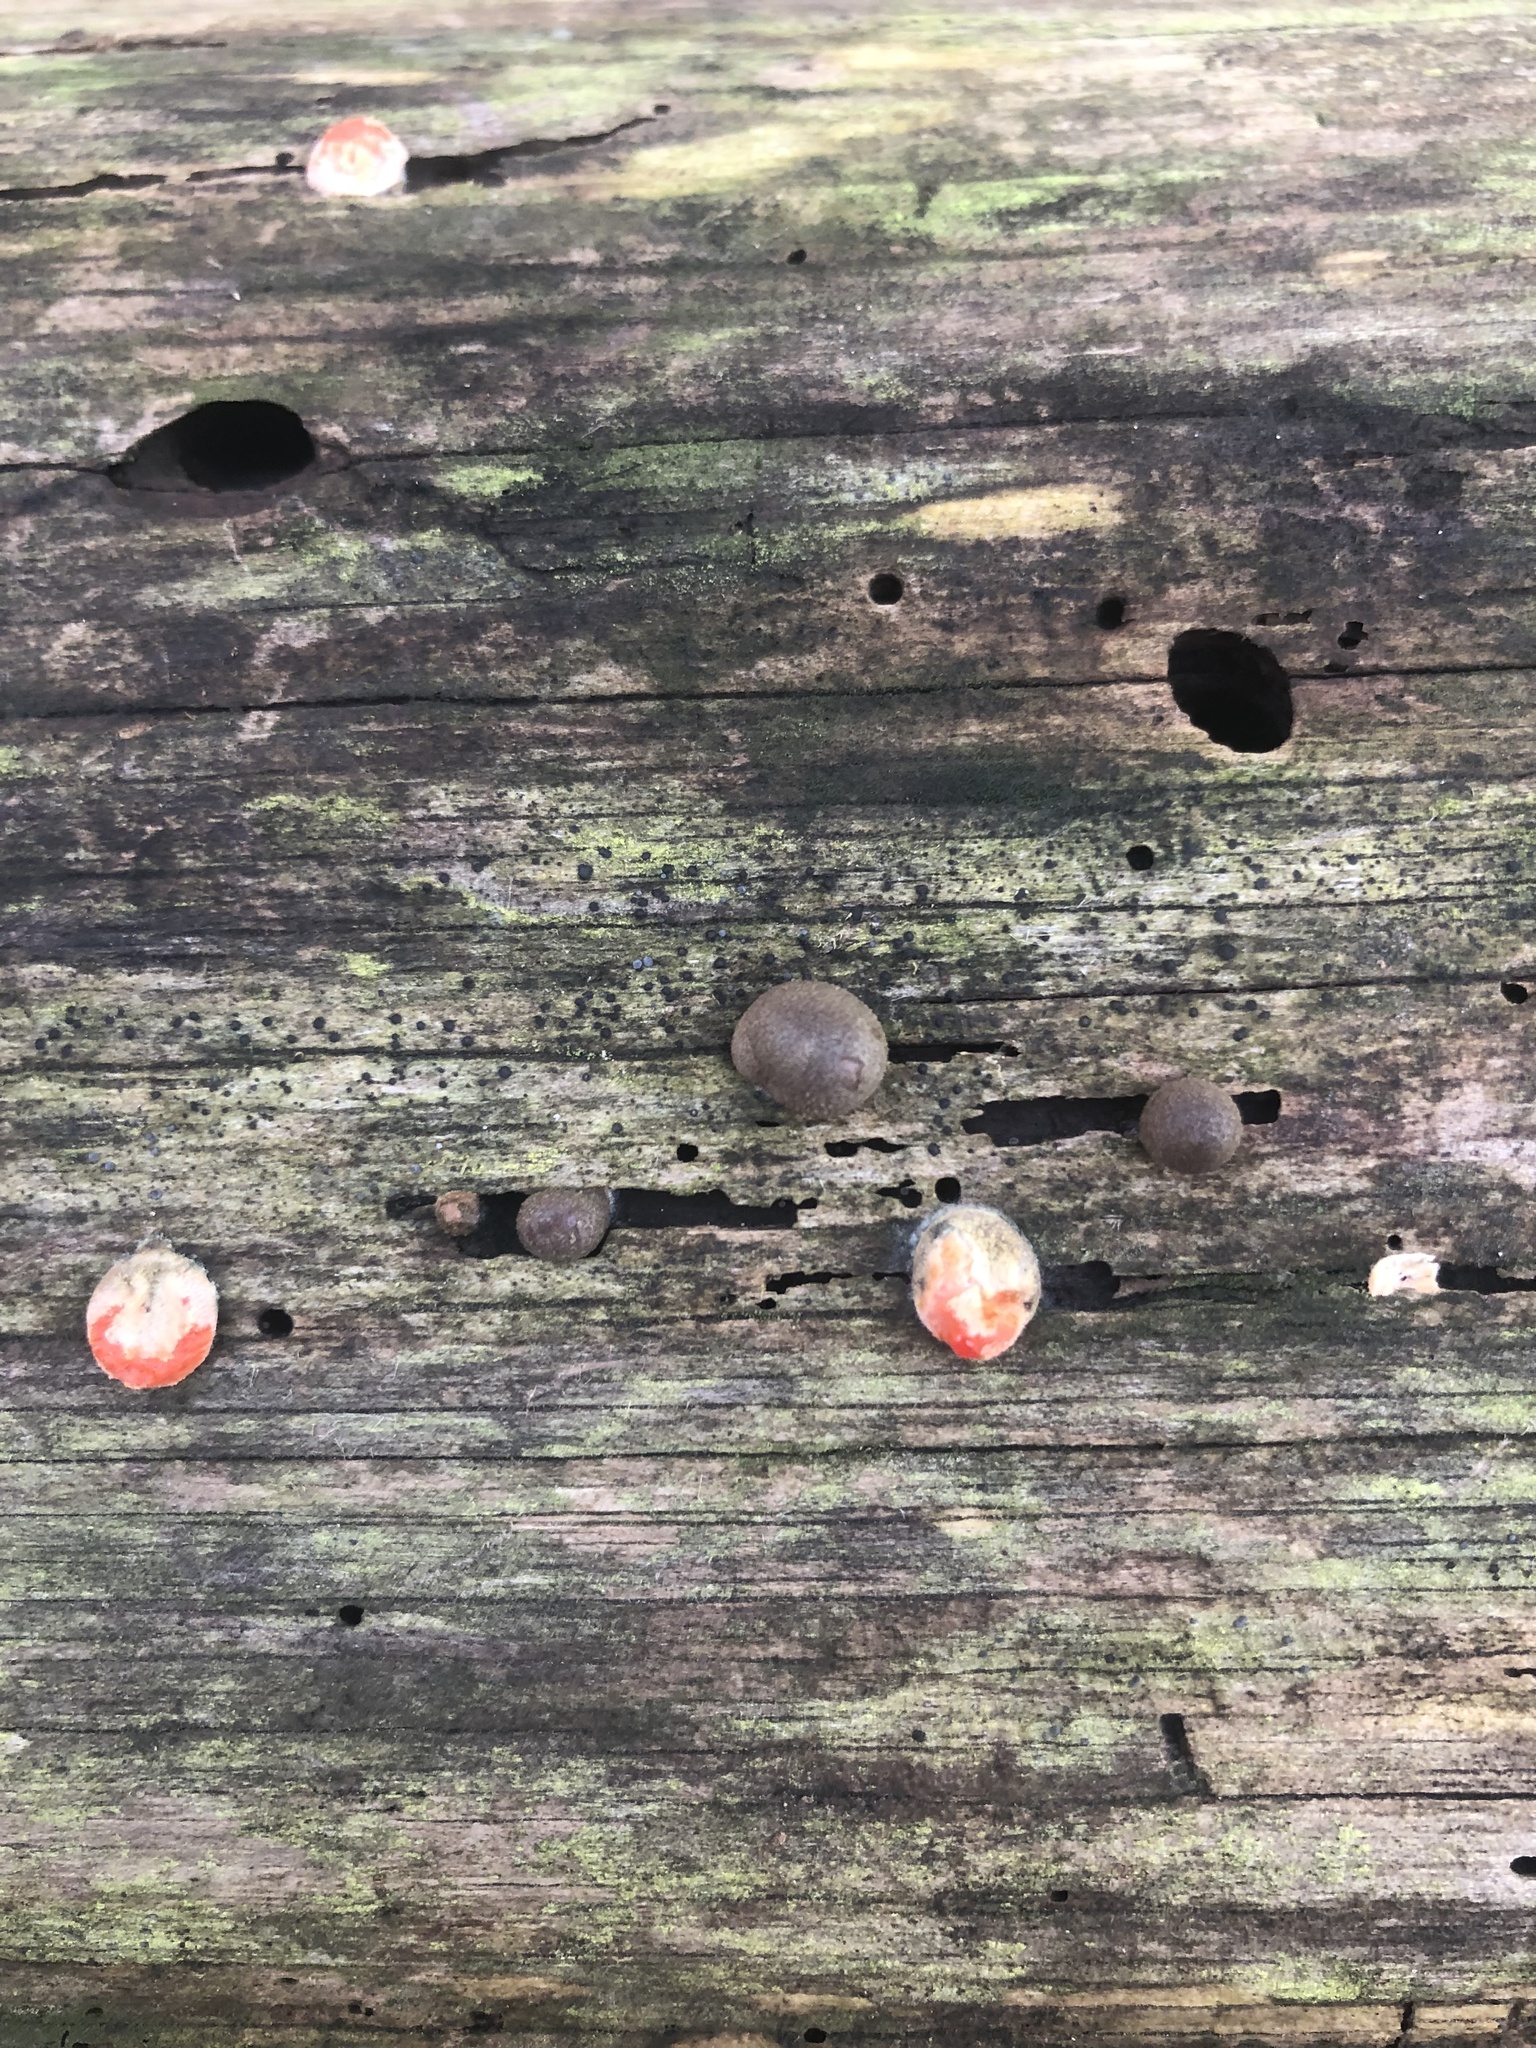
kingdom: Protozoa
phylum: Mycetozoa
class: Myxomycetes
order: Cribrariales
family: Tubiferaceae
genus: Lycogala
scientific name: Lycogala epidendrum
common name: Wolf's milk
